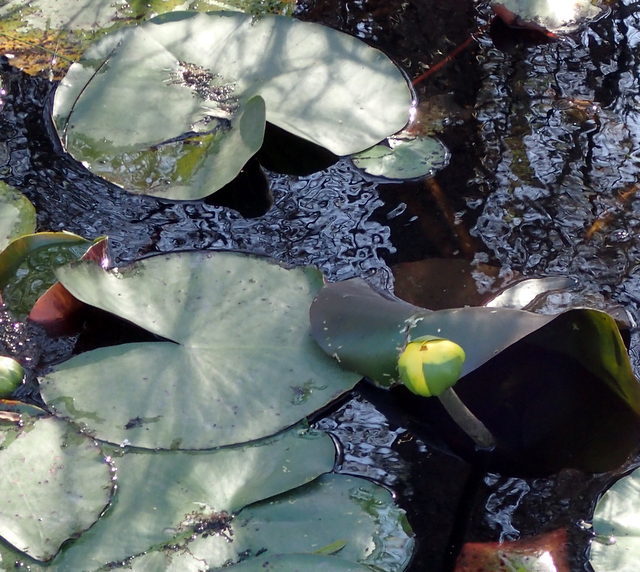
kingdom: Plantae
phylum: Tracheophyta
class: Magnoliopsida
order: Nymphaeales
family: Nymphaeaceae
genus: Nuphar
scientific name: Nuphar advena
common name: Spatter-dock
